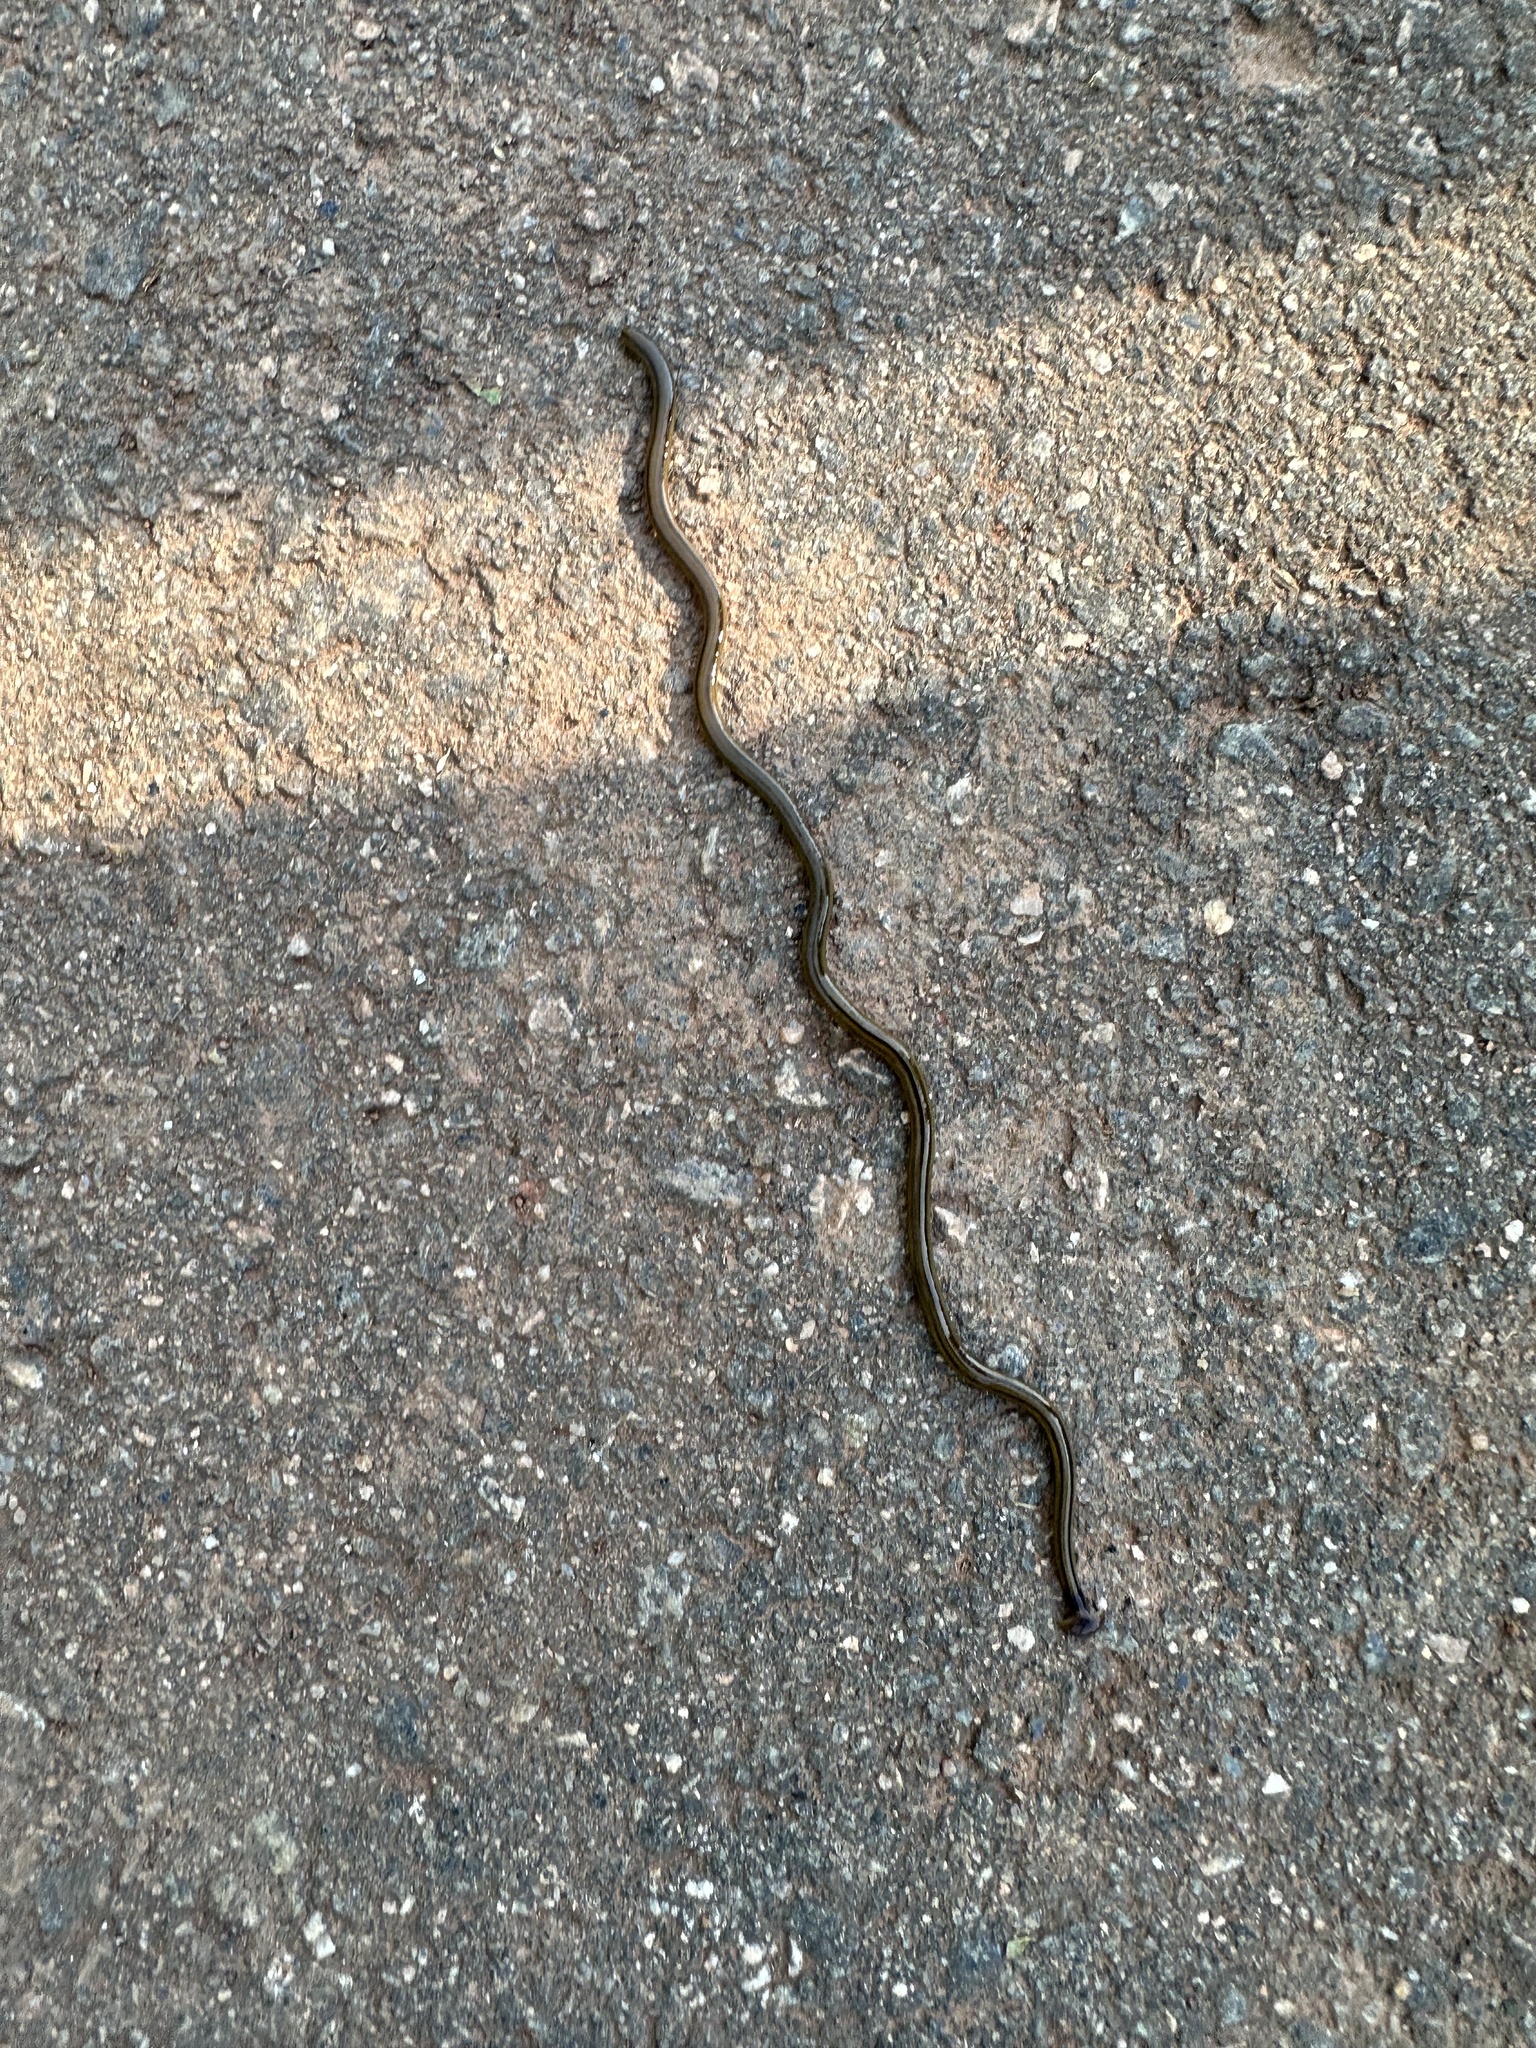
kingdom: Animalia
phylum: Platyhelminthes
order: Tricladida
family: Geoplanidae
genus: Bipalium
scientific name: Bipalium kewense
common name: Hammerhead flatworm
